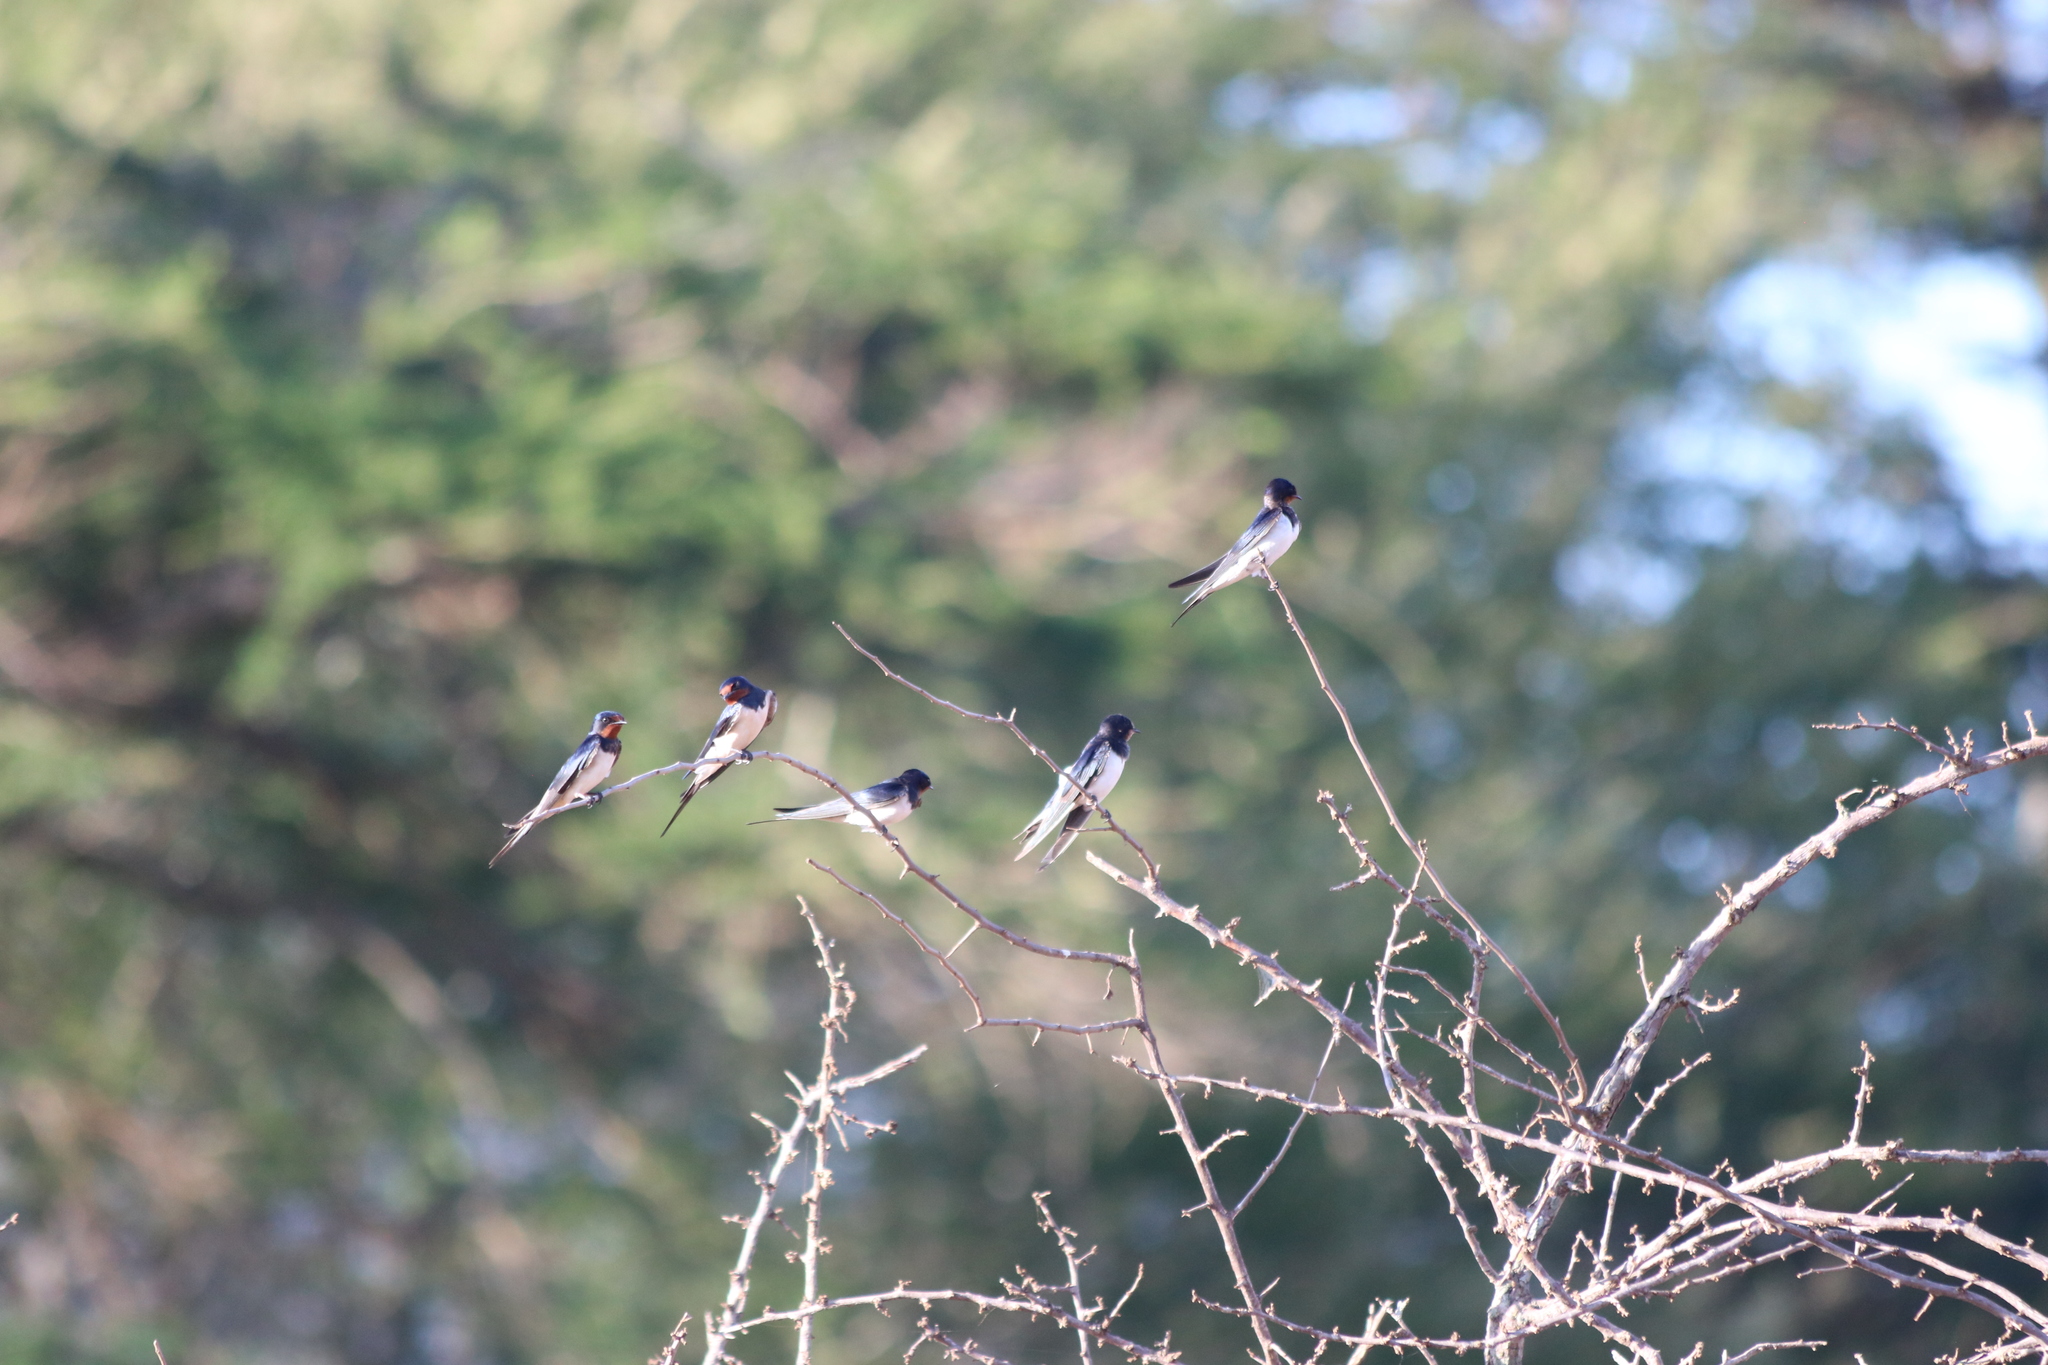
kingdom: Animalia
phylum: Chordata
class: Aves
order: Passeriformes
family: Hirundinidae
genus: Hirundo
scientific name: Hirundo rustica
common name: Barn swallow
